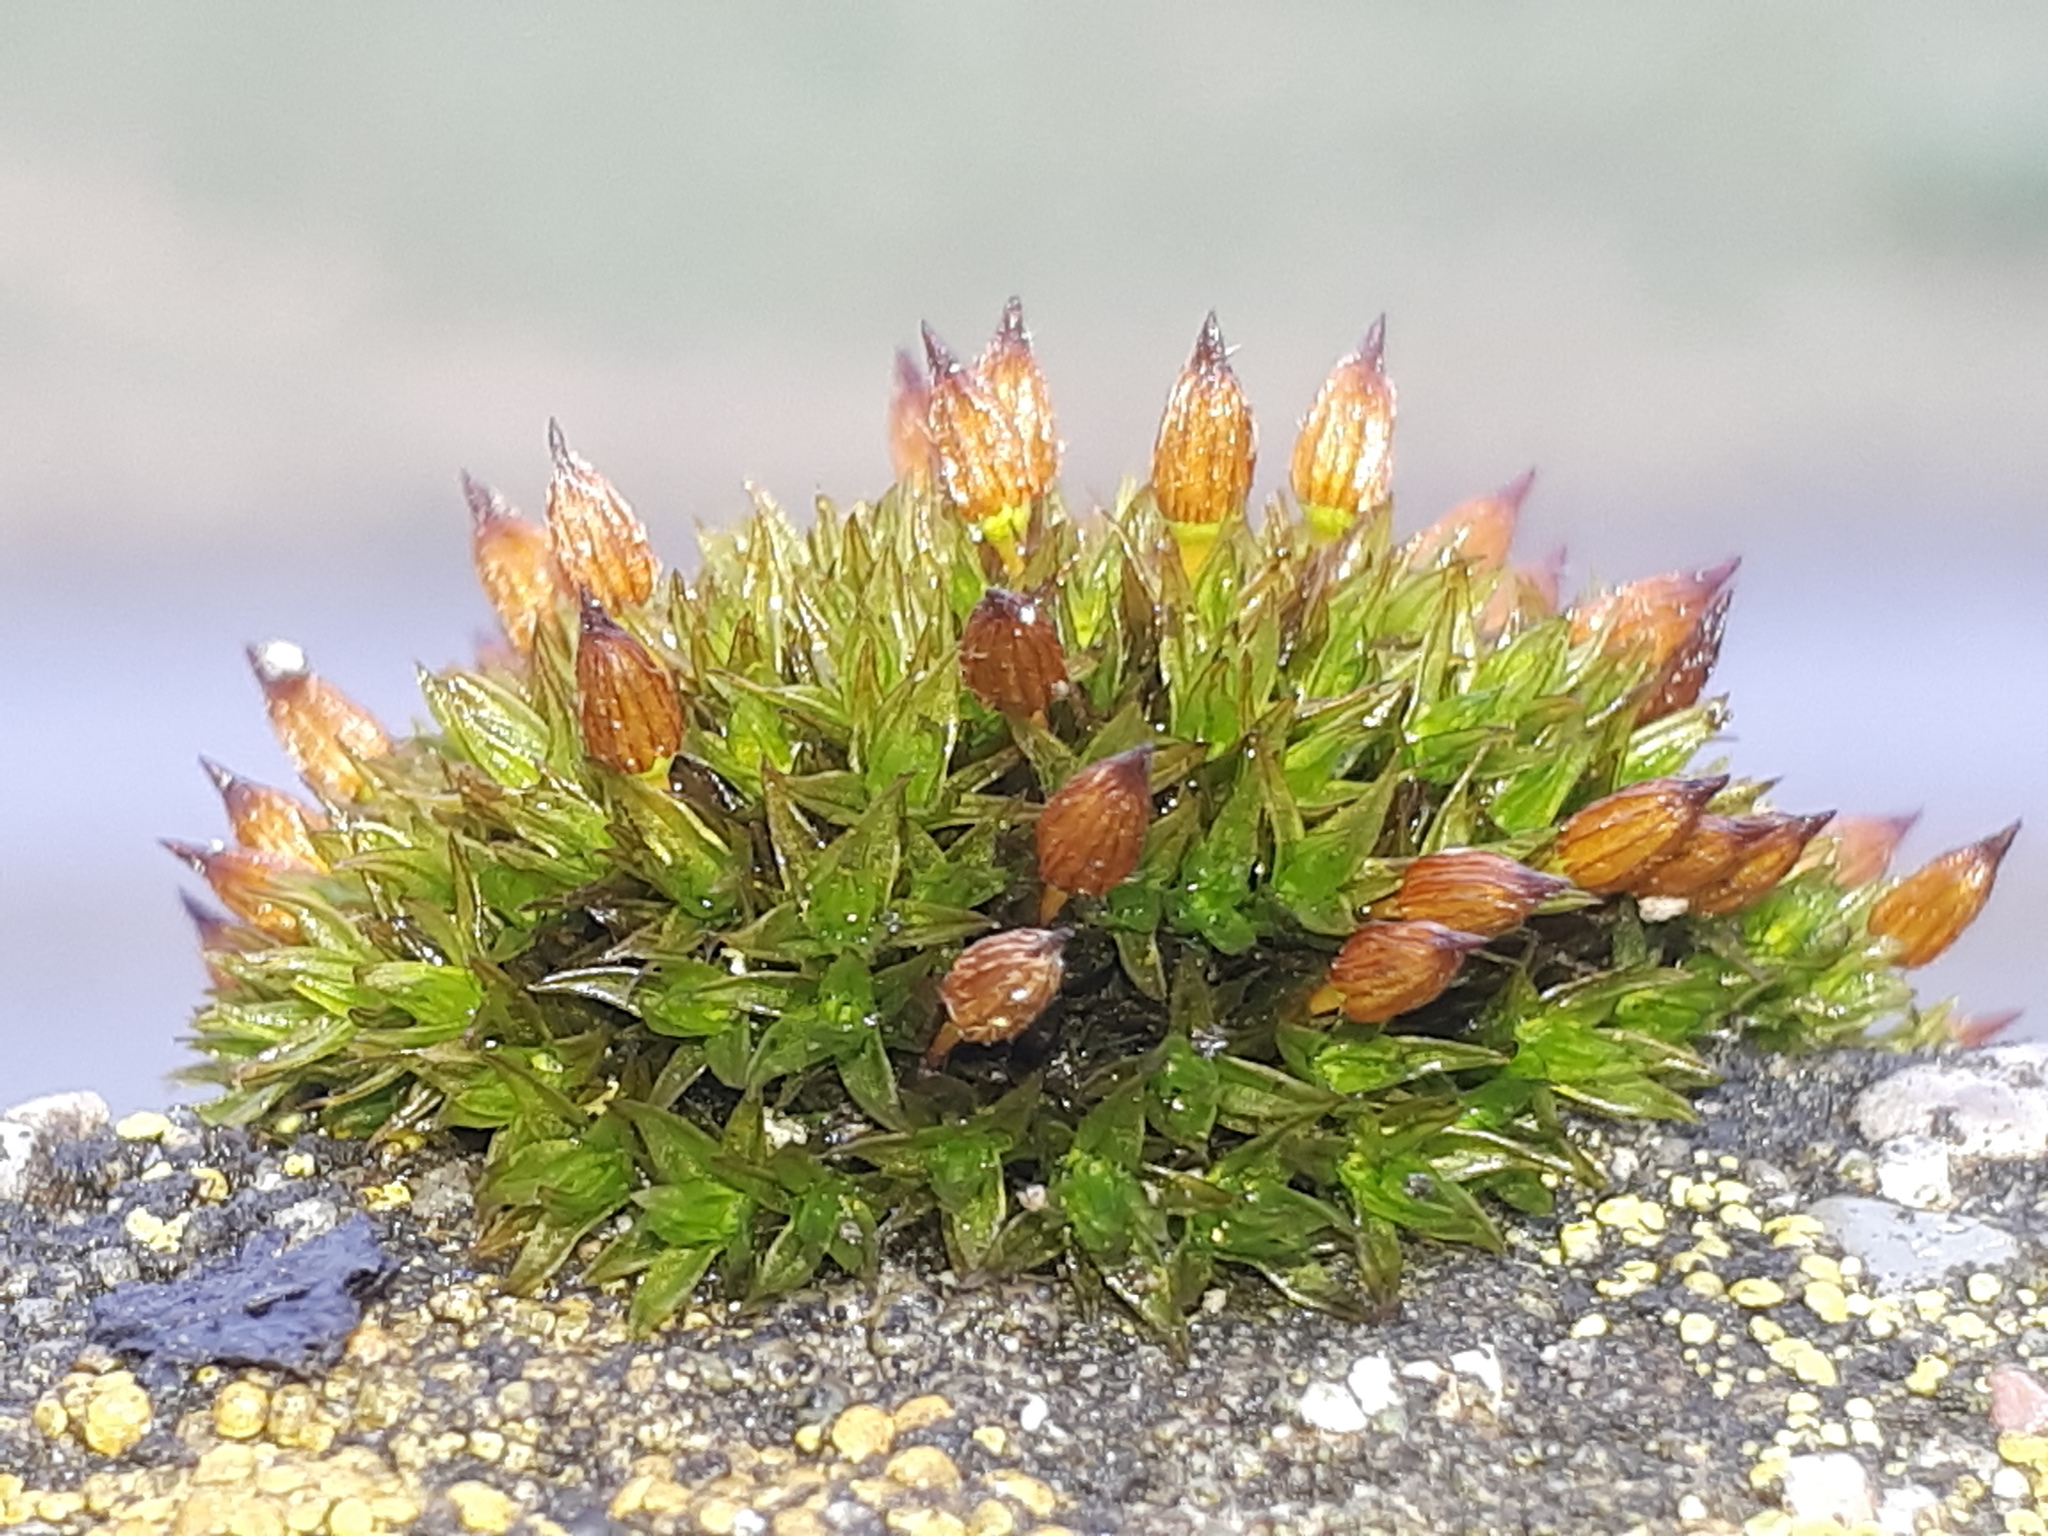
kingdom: Plantae
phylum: Bryophyta
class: Bryopsida
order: Orthotrichales
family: Orthotrichaceae
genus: Orthotrichum
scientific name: Orthotrichum anomalum
